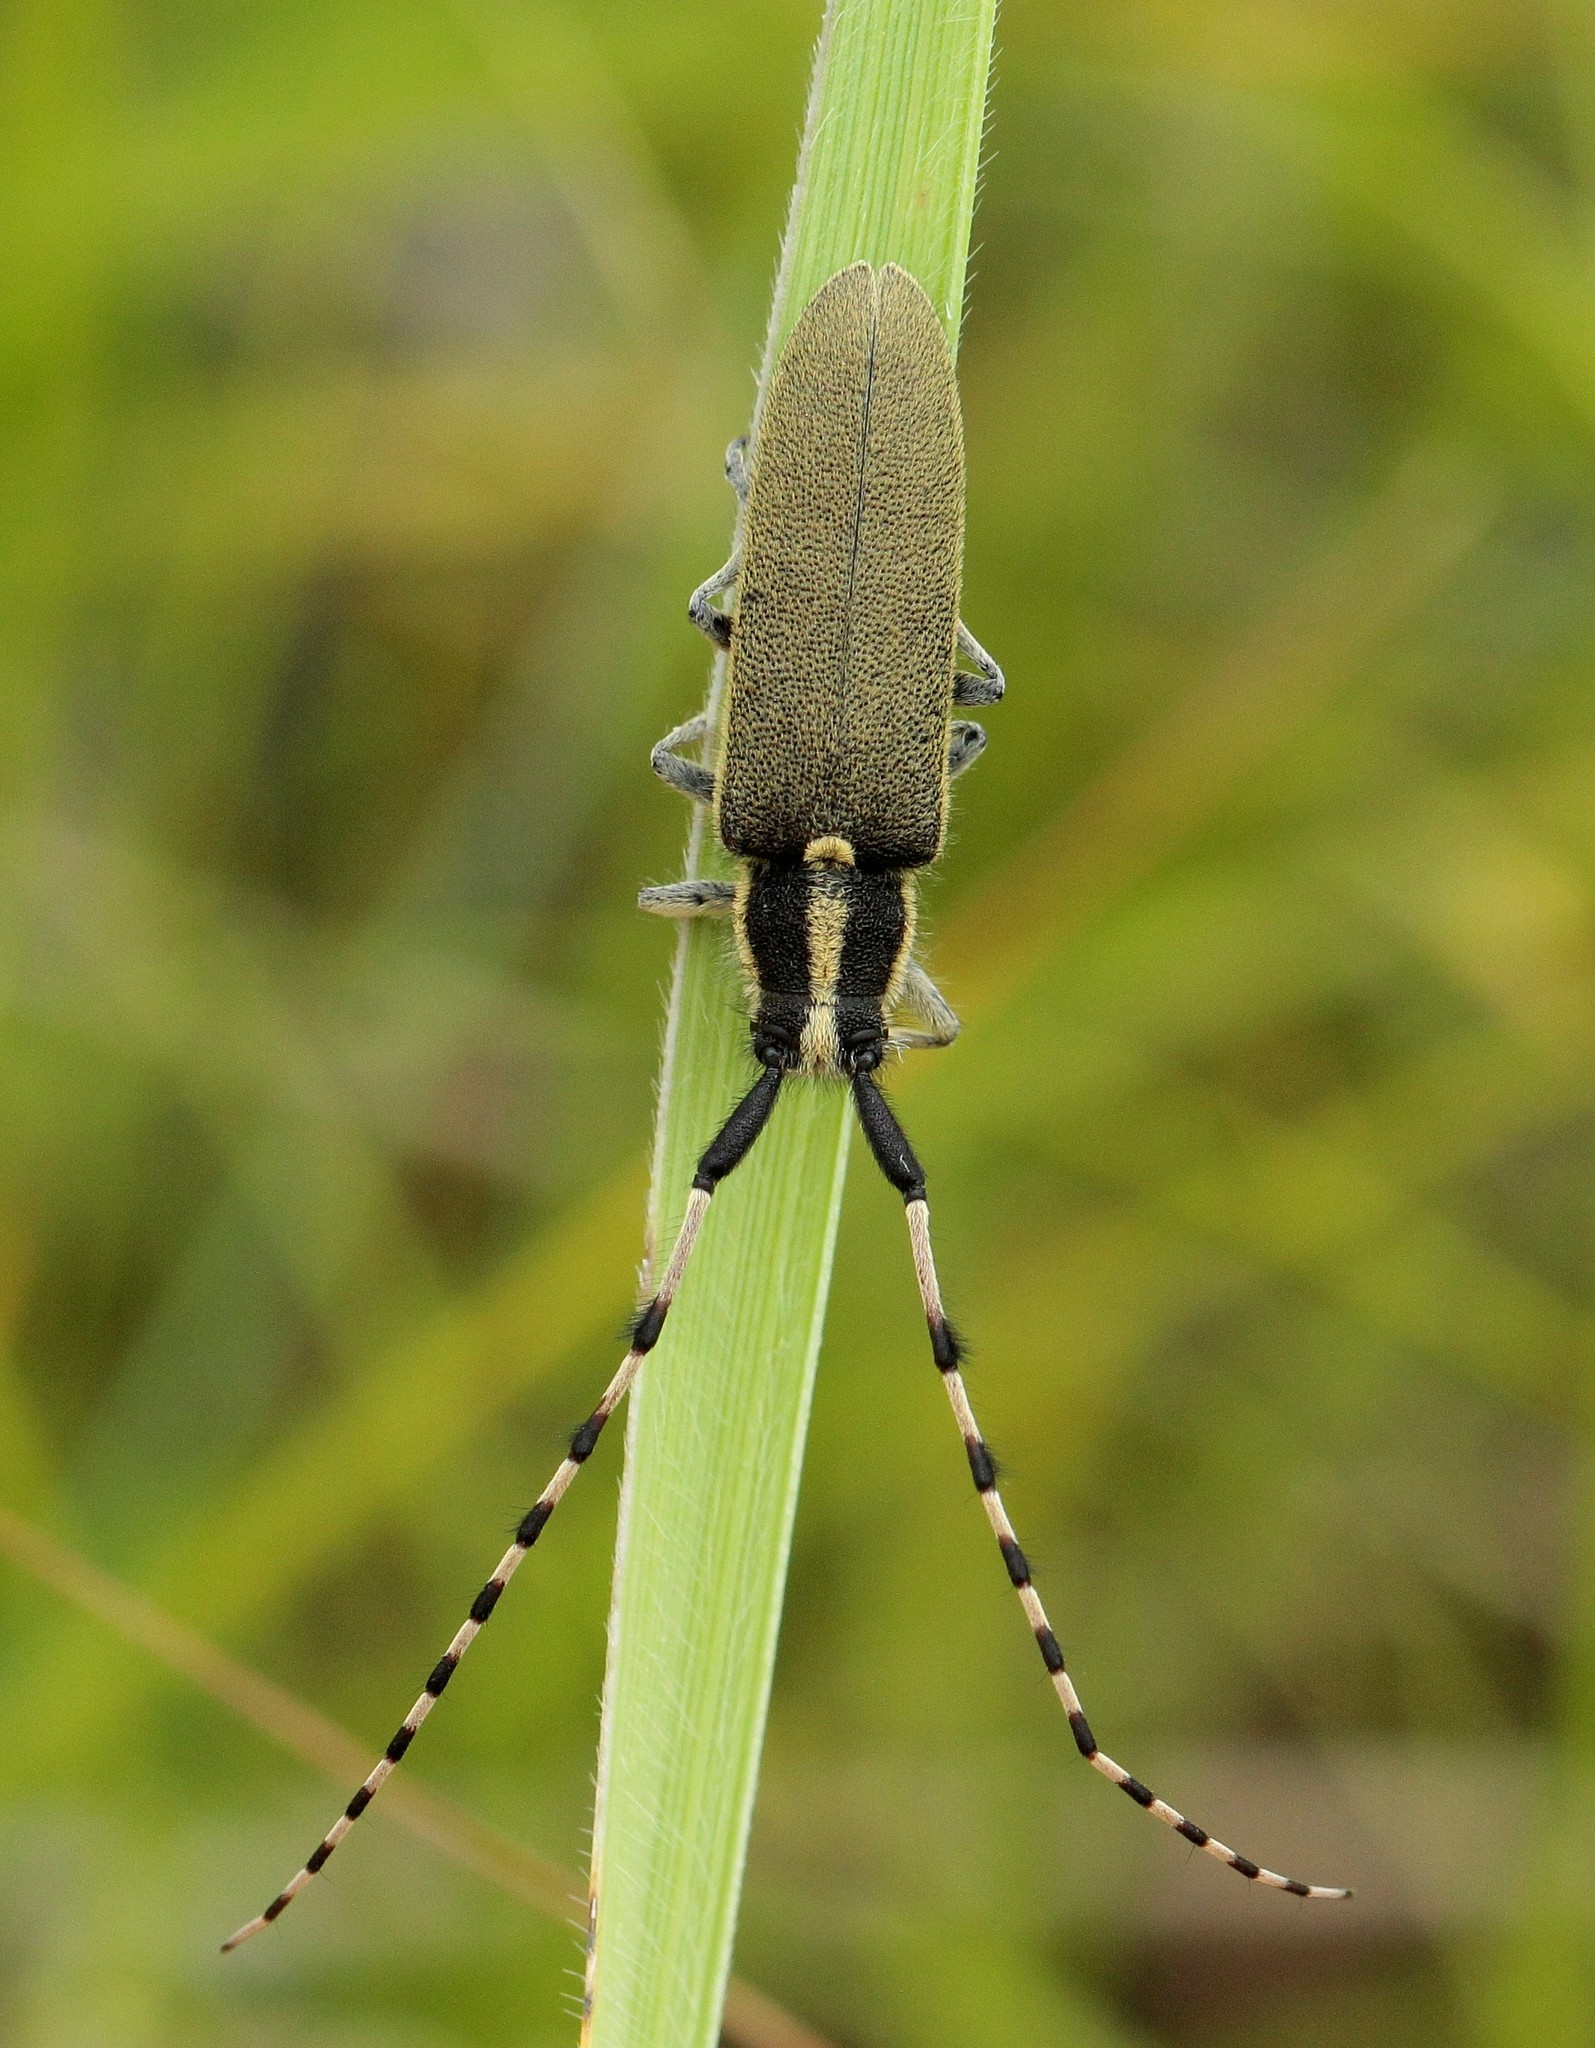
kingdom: Animalia
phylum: Arthropoda
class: Insecta
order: Coleoptera
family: Cerambycidae
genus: Agapanthia
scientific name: Agapanthia kirbyi
